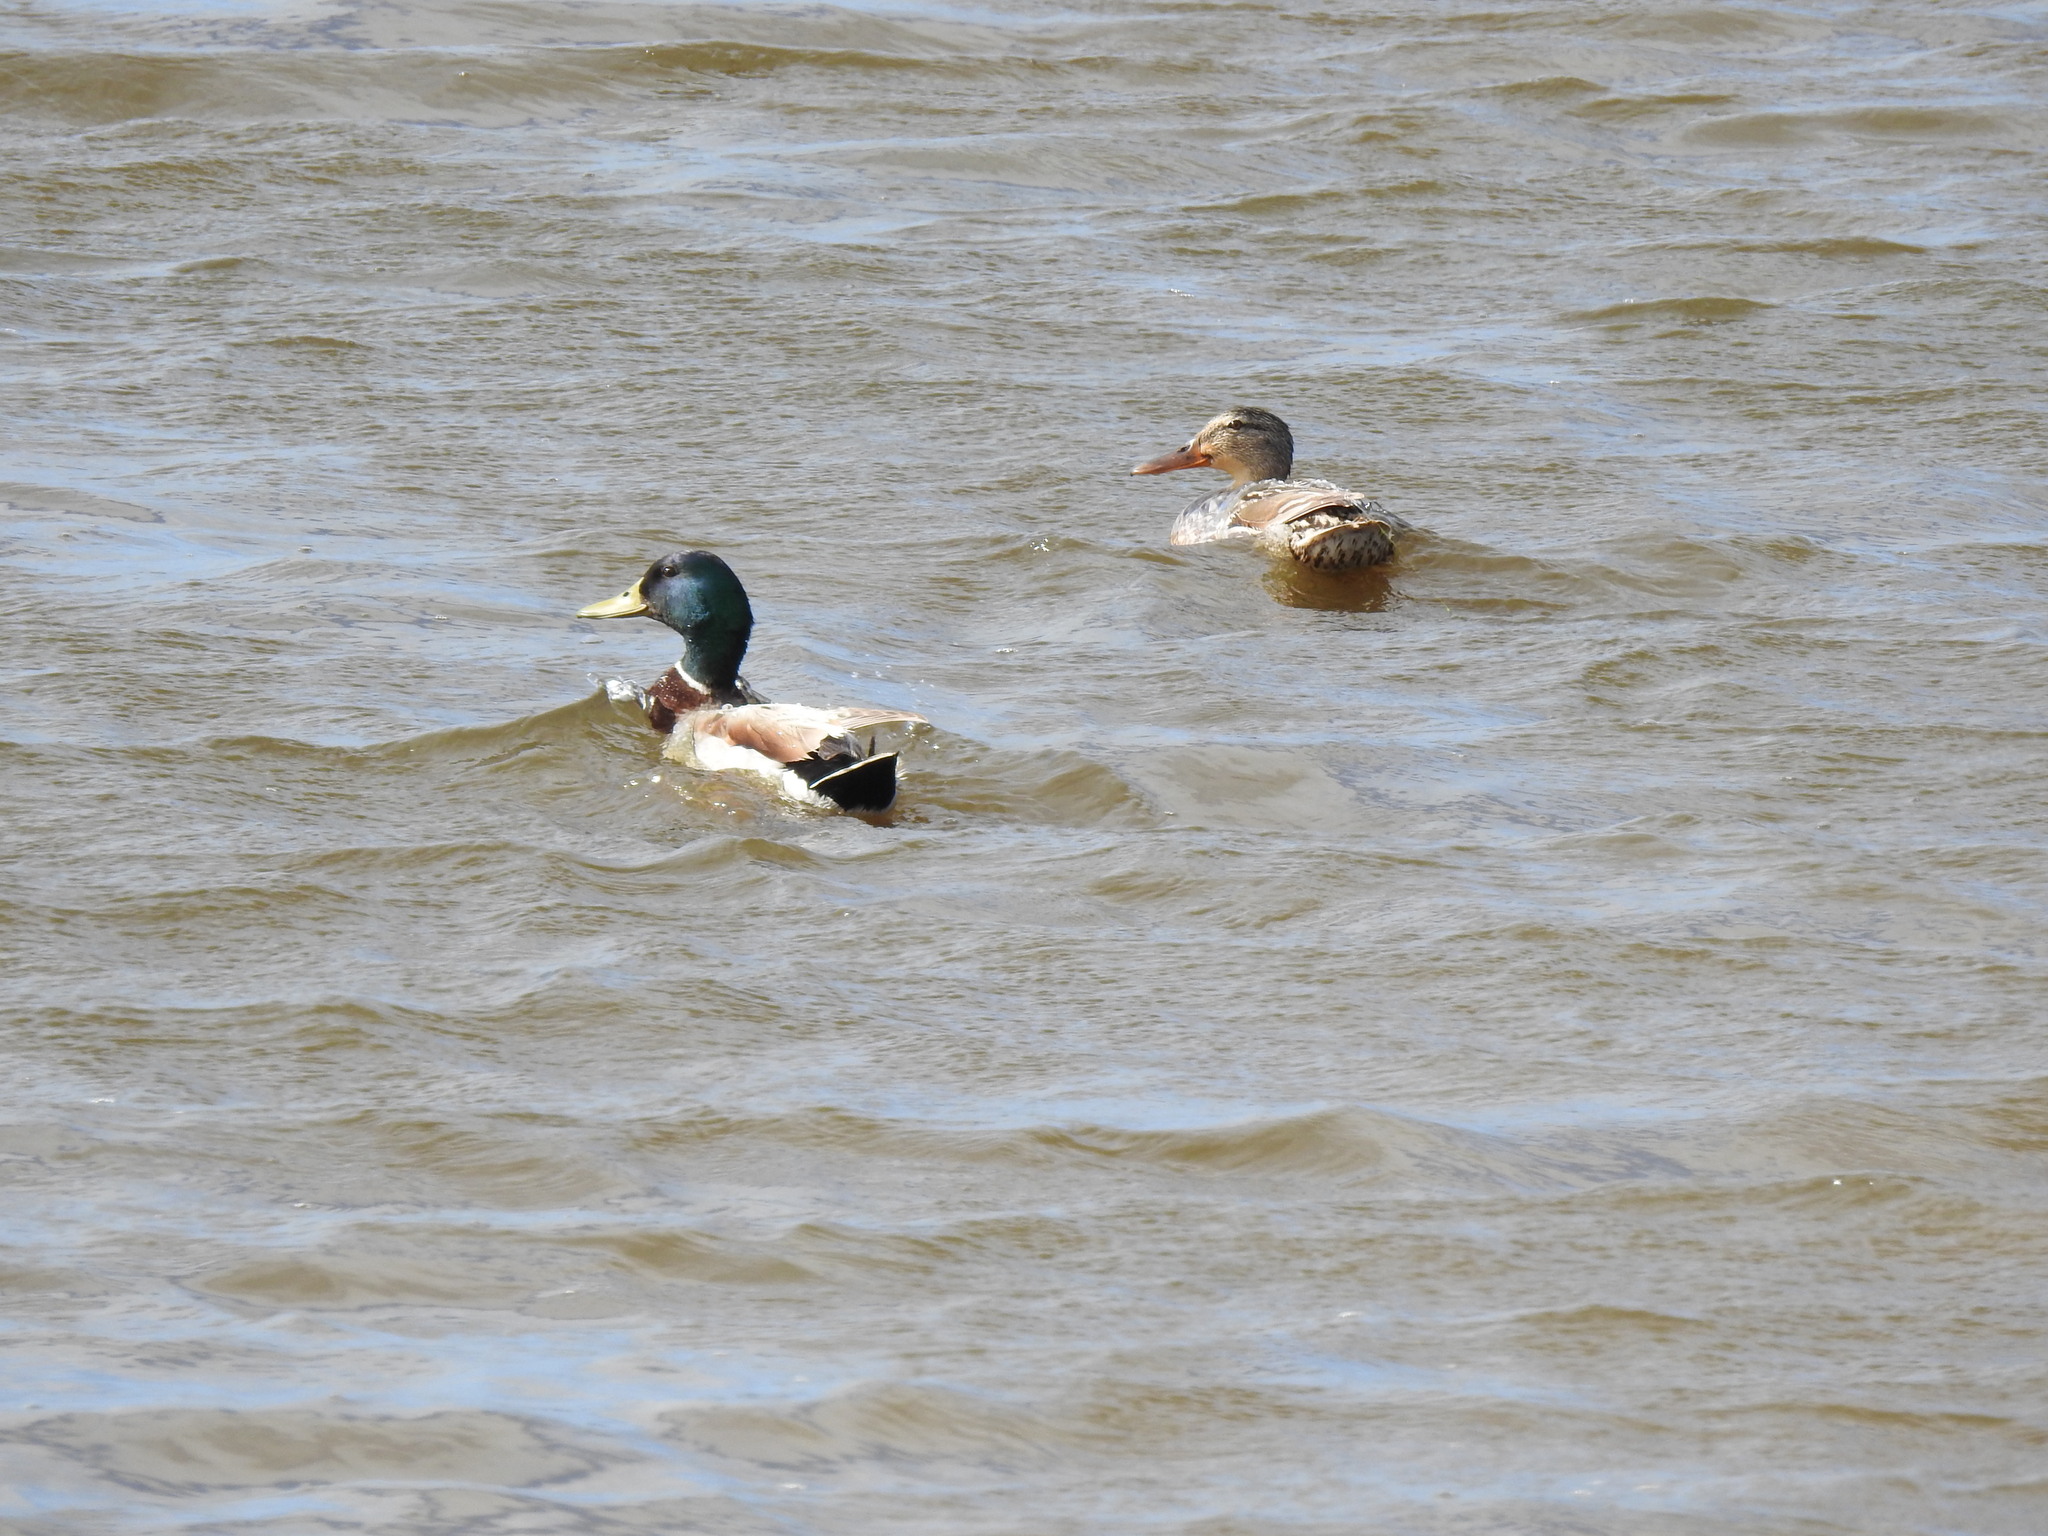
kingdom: Animalia
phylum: Chordata
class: Aves
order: Anseriformes
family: Anatidae
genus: Anas
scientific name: Anas platyrhynchos
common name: Mallard
